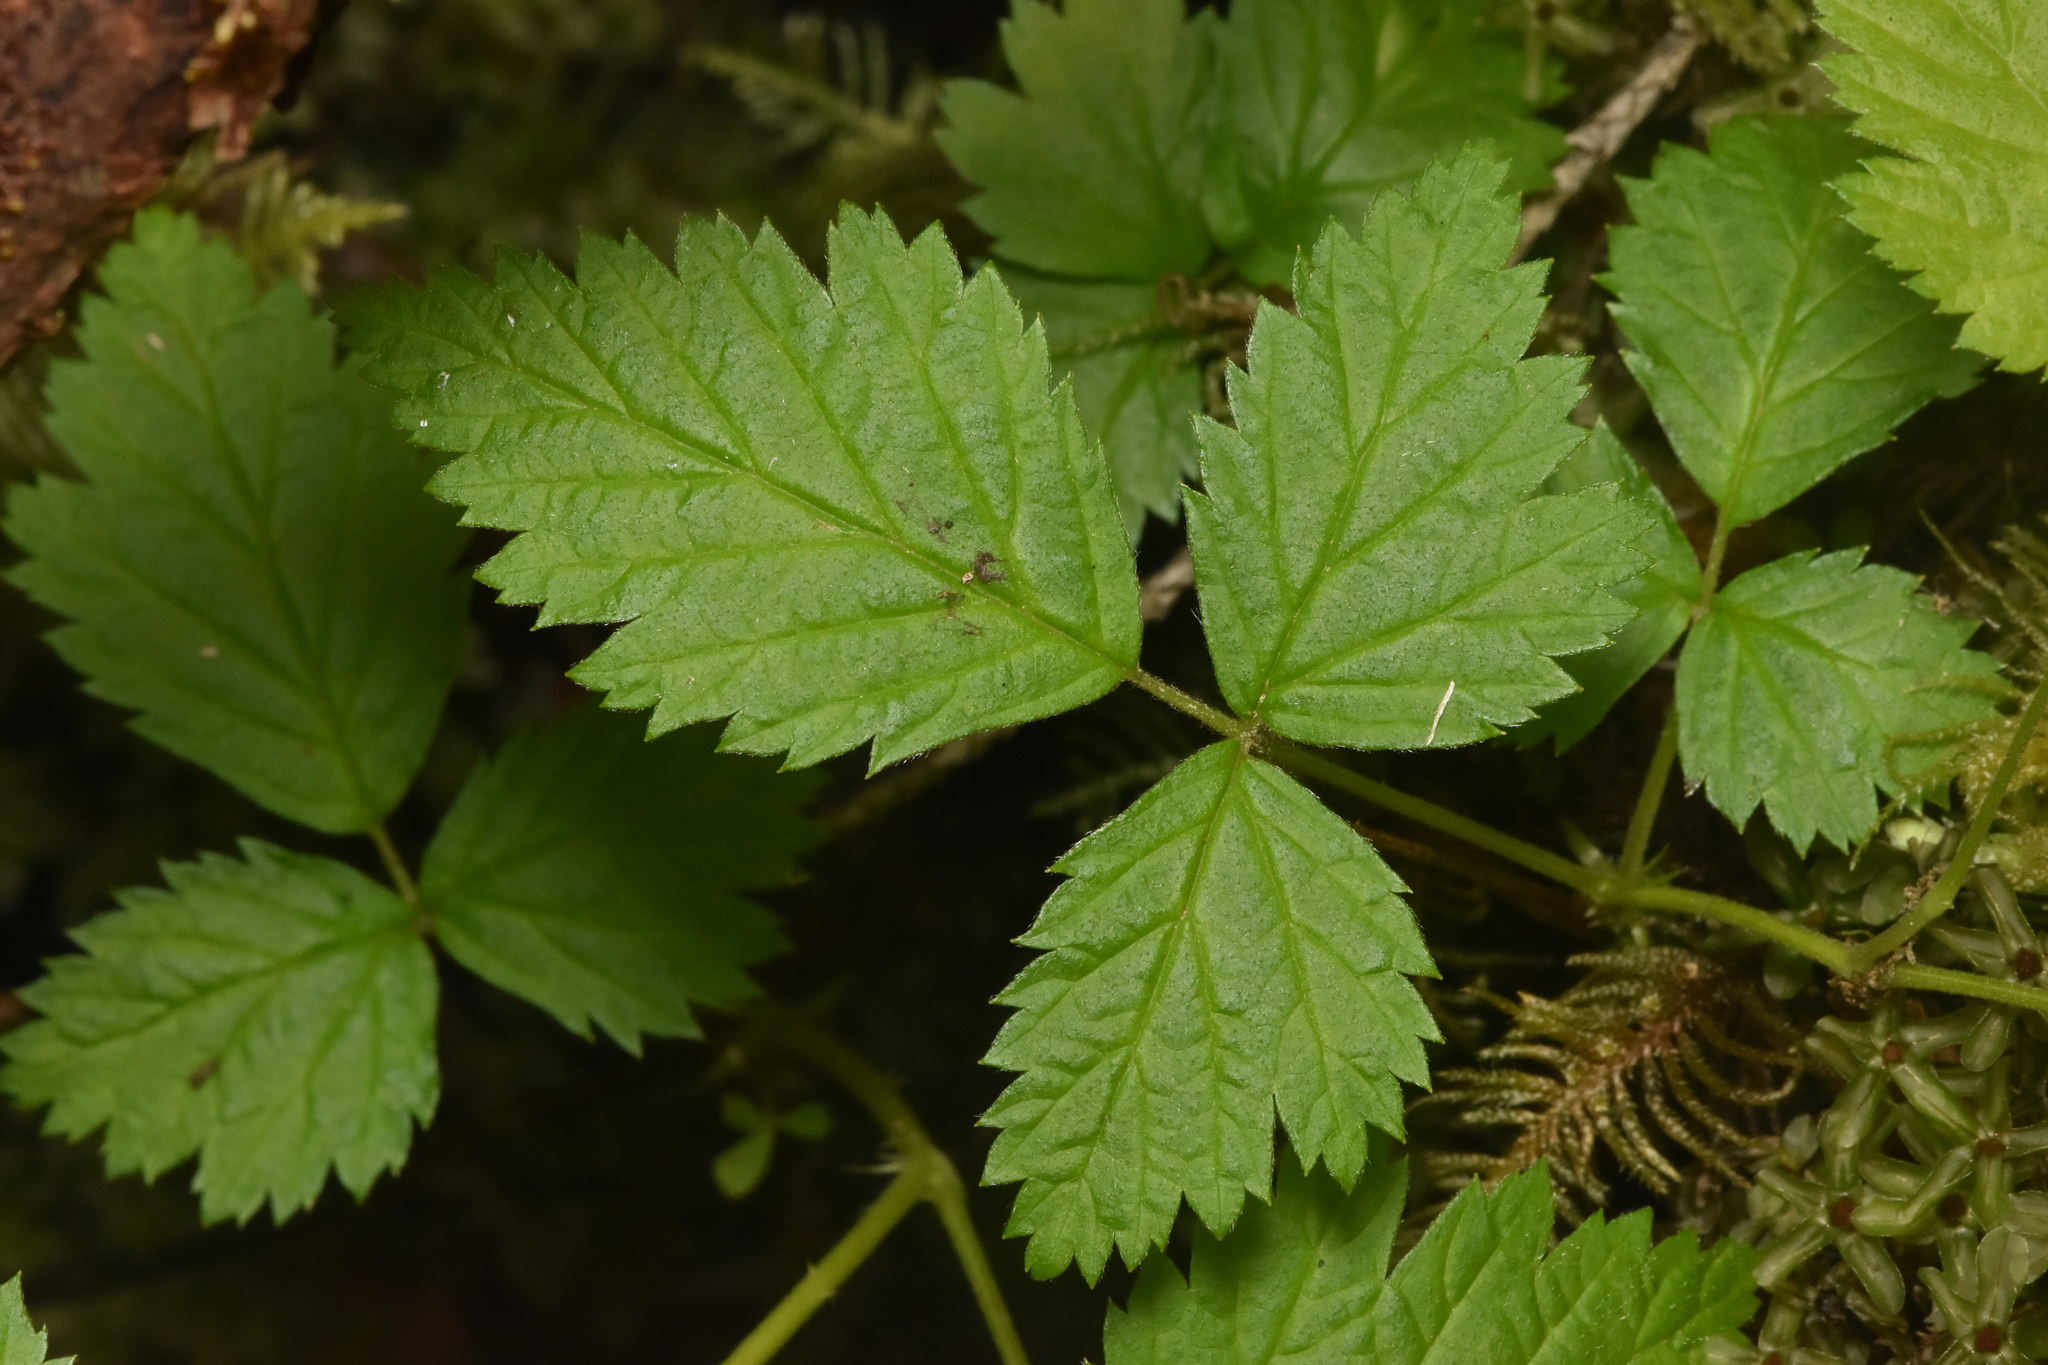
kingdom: Plantae
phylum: Tracheophyta
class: Magnoliopsida
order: Rosales
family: Rosaceae
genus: Rubus
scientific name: Rubus spectabilis
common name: Salmonberry
